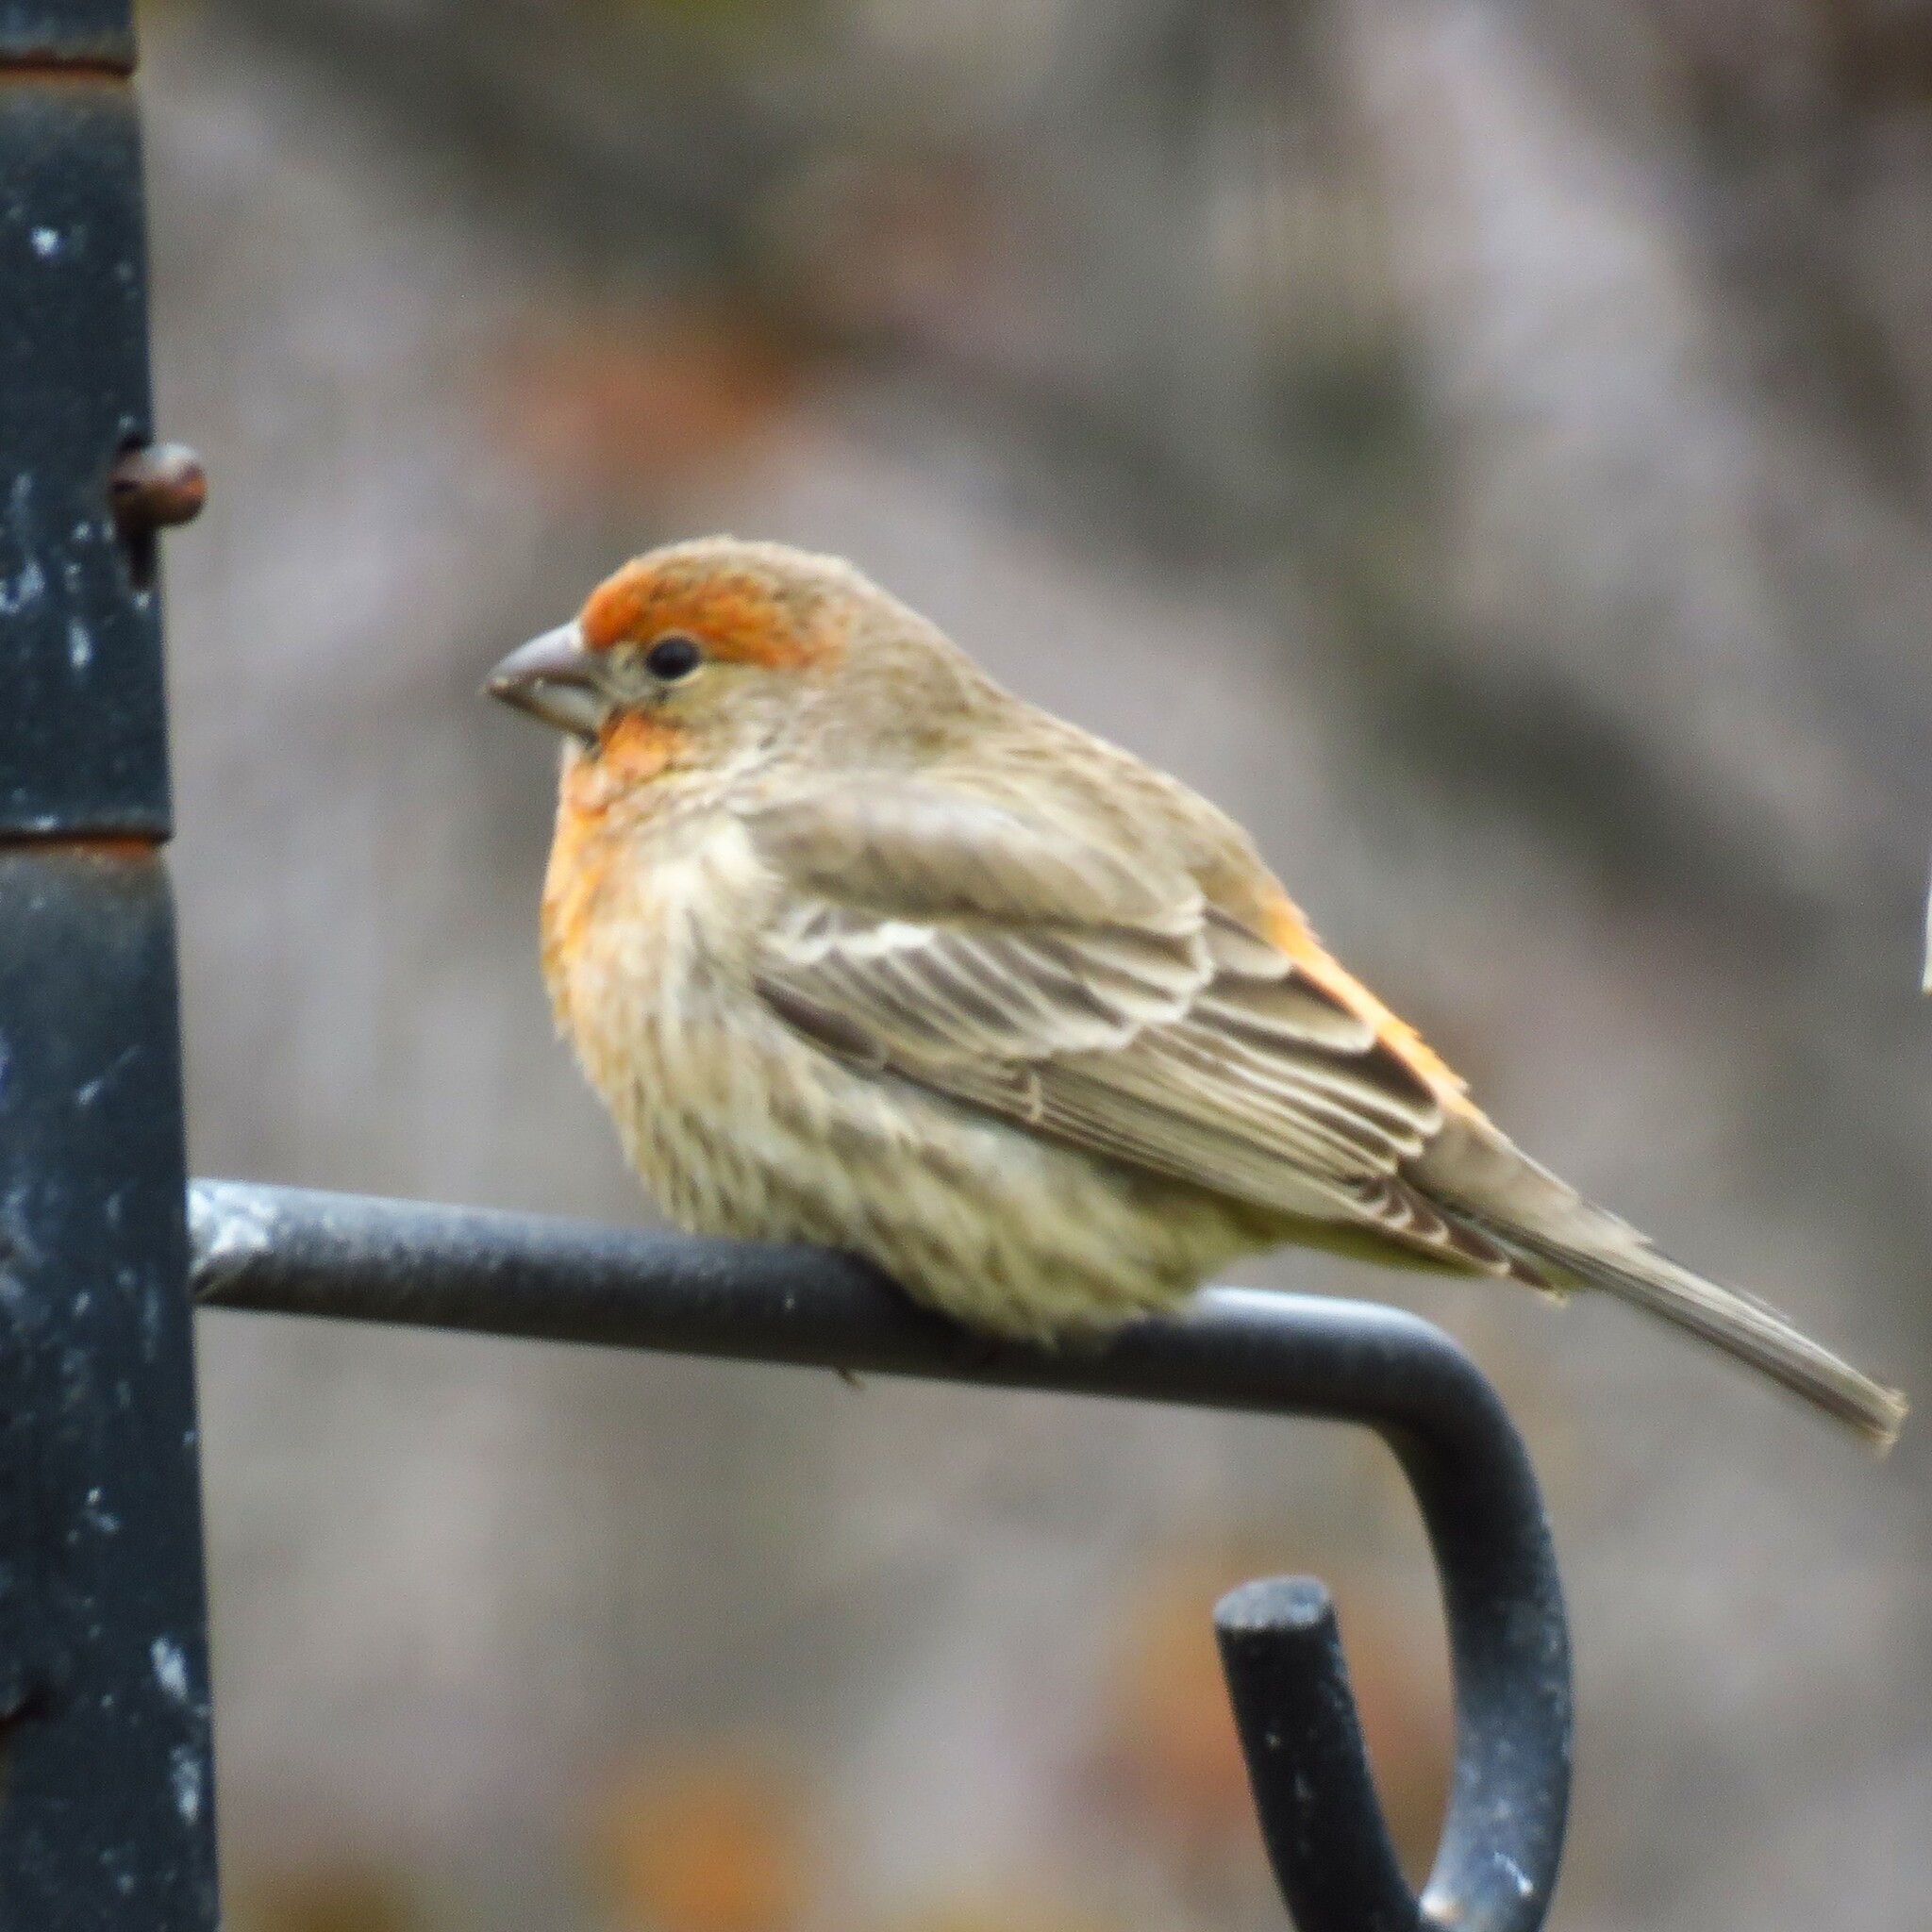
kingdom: Animalia
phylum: Chordata
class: Aves
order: Passeriformes
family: Fringillidae
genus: Haemorhous
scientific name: Haemorhous mexicanus
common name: House finch
